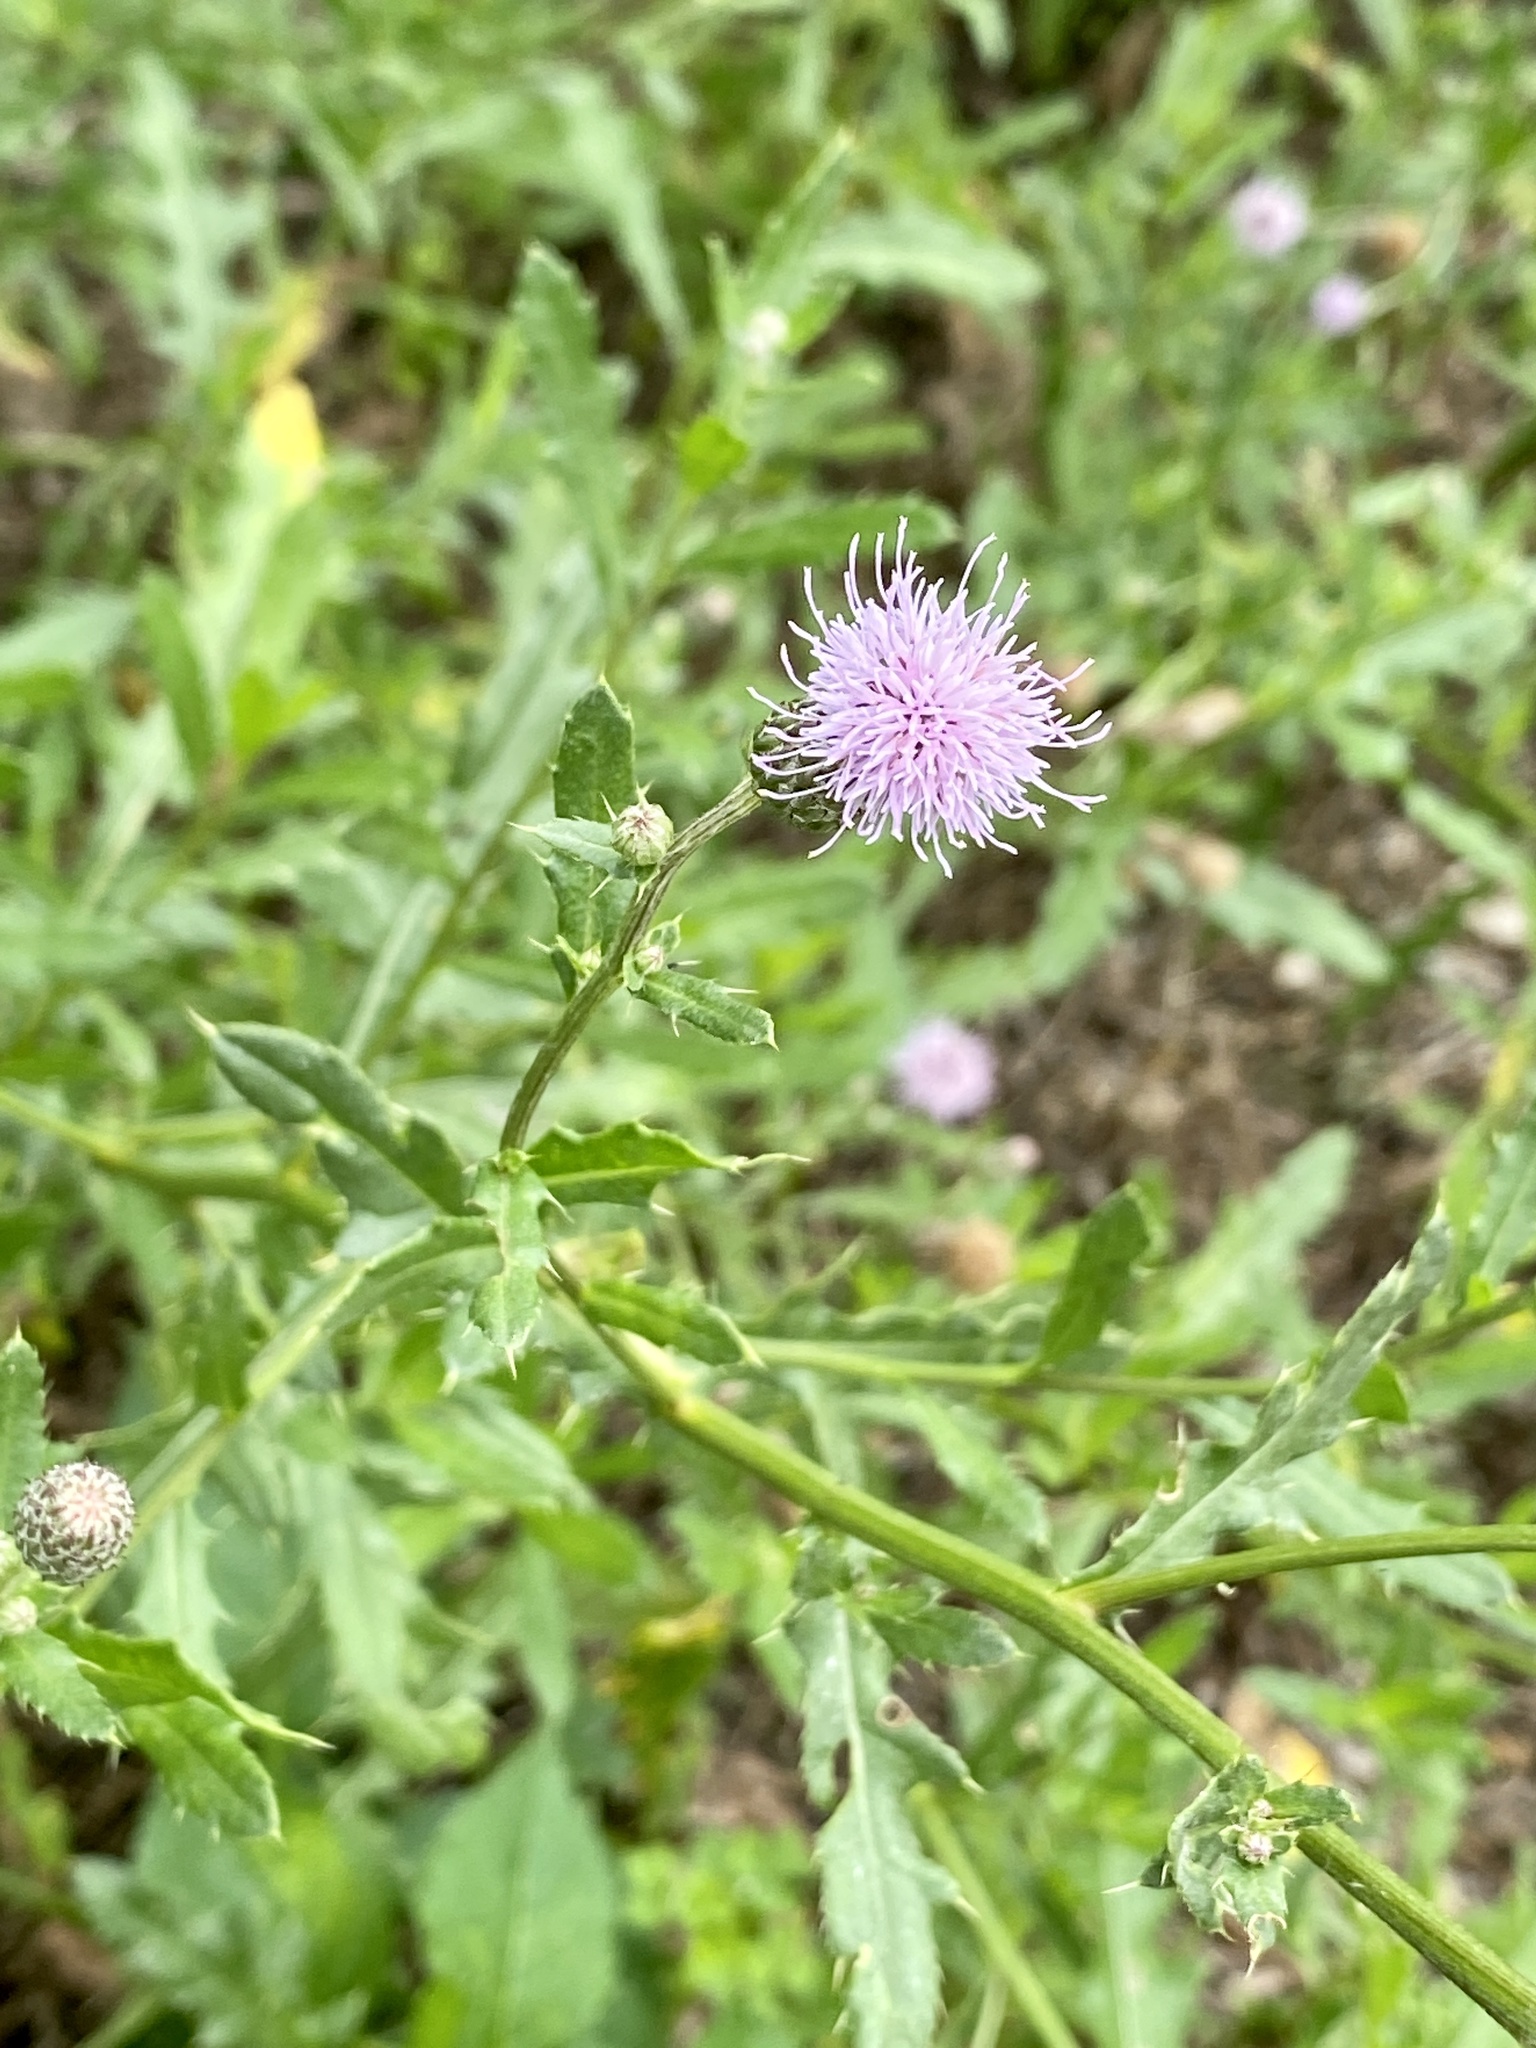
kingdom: Plantae
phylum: Tracheophyta
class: Magnoliopsida
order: Asterales
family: Asteraceae
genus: Cirsium
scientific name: Cirsium arvense
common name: Creeping thistle
